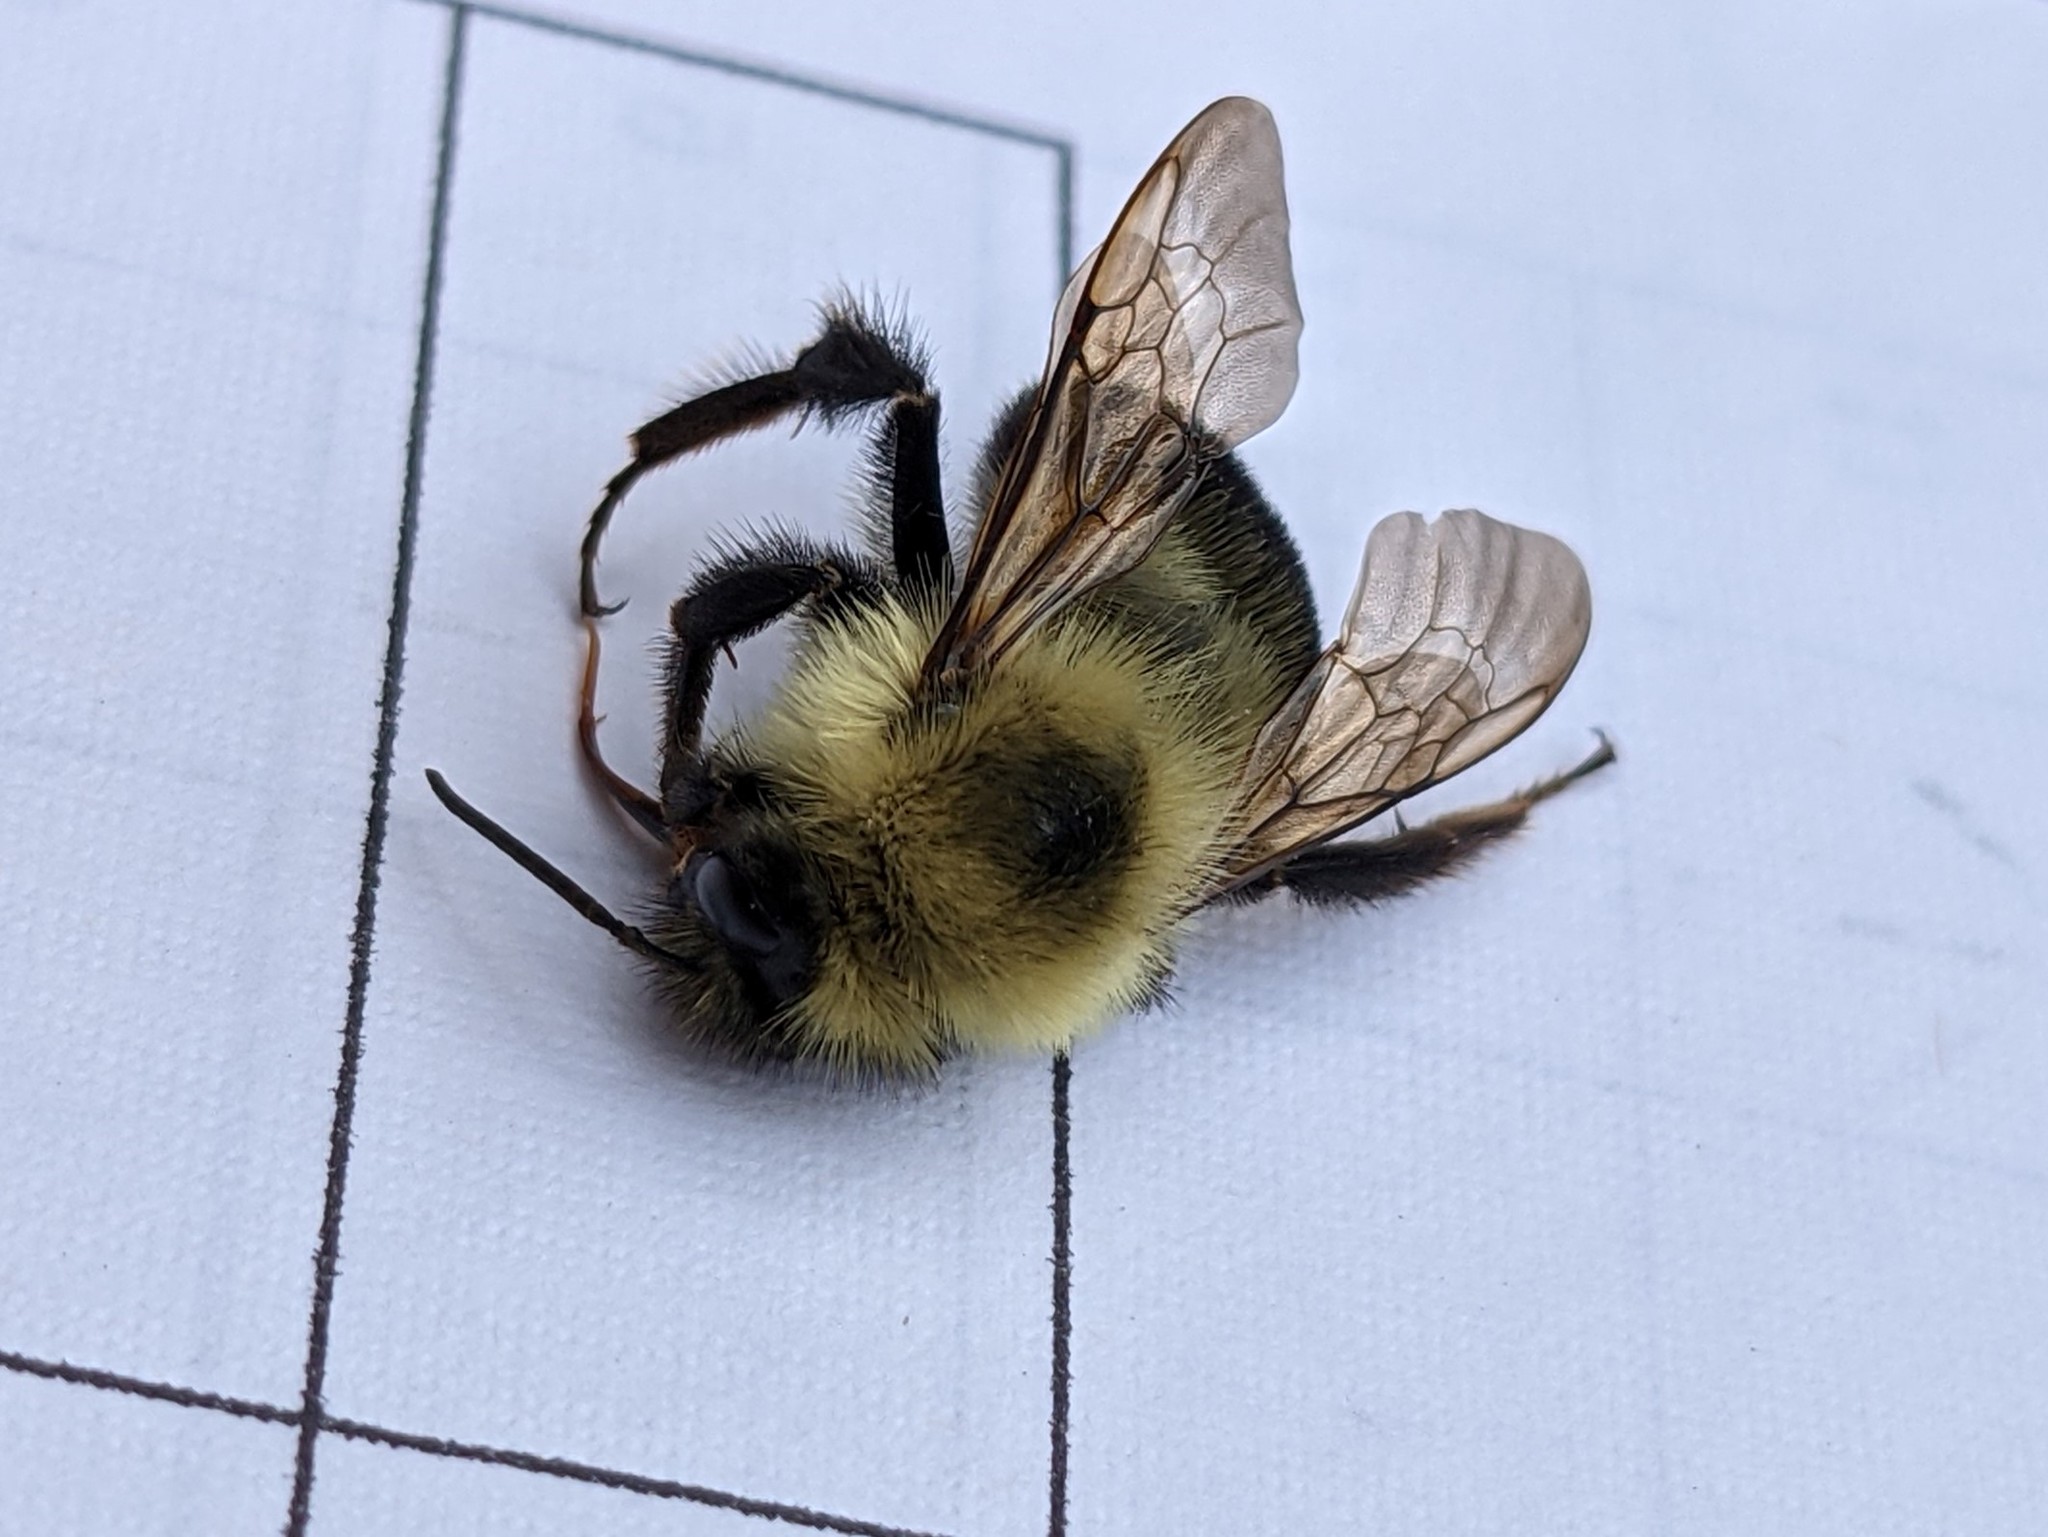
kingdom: Animalia
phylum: Arthropoda
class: Insecta
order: Hymenoptera
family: Apidae
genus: Bombus
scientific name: Bombus bimaculatus
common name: Two-spotted bumble bee
